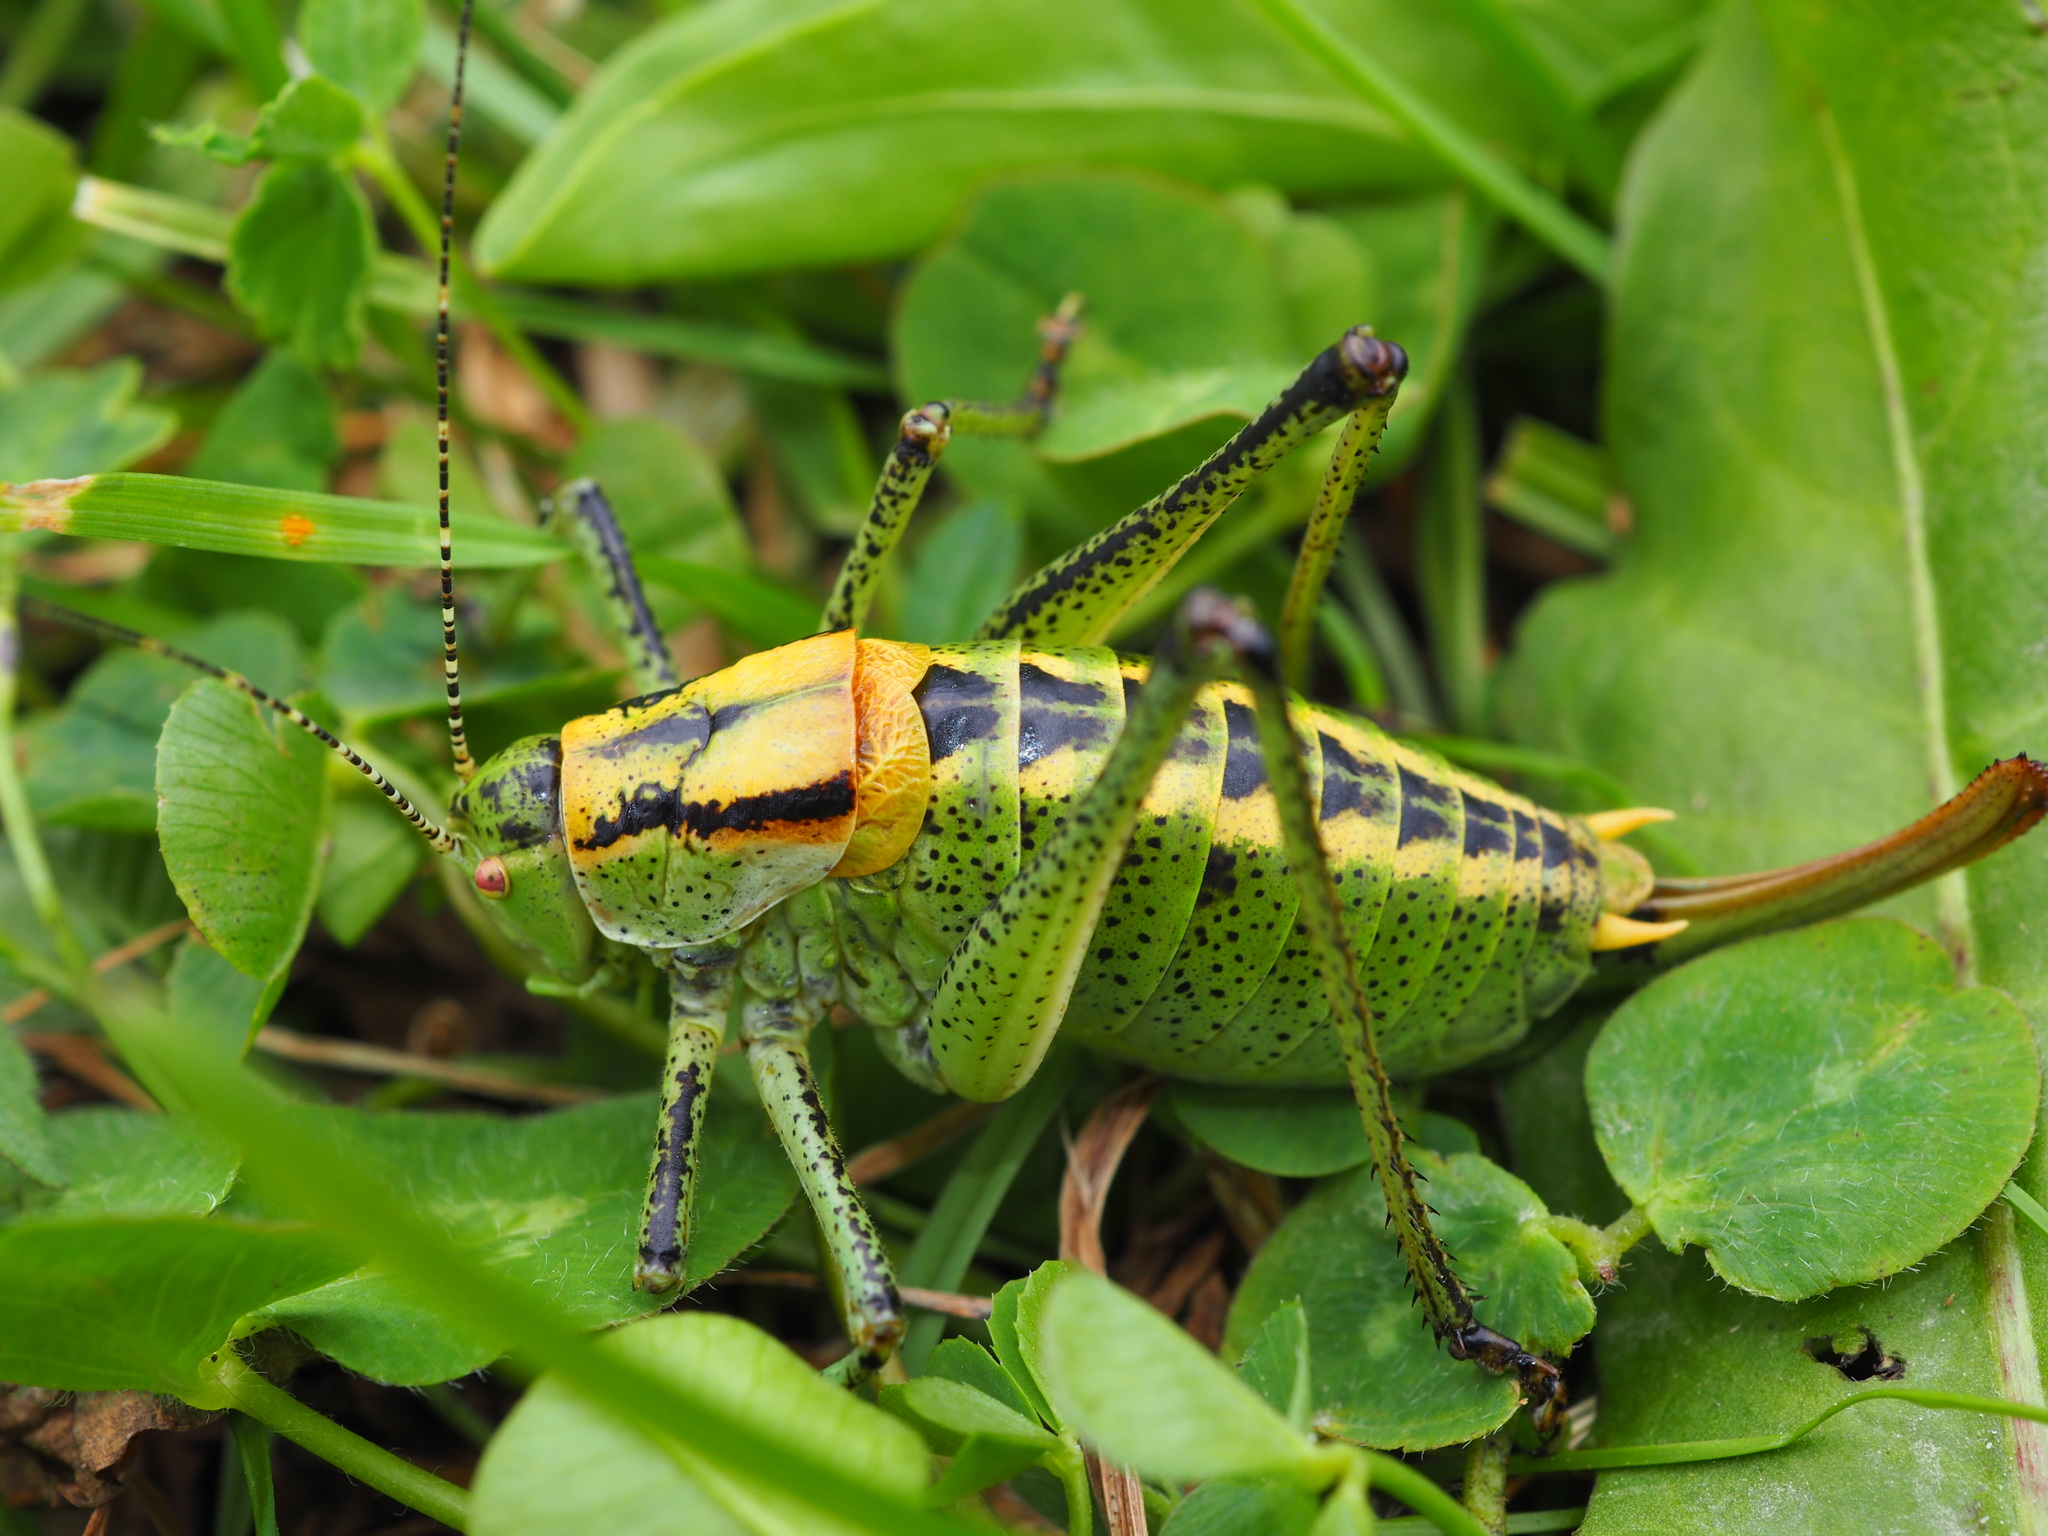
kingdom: Animalia
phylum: Arthropoda
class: Insecta
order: Orthoptera
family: Tettigoniidae
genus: Poecilimon
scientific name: Poecilimon ornatus
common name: Ornate bright bush-cricket
